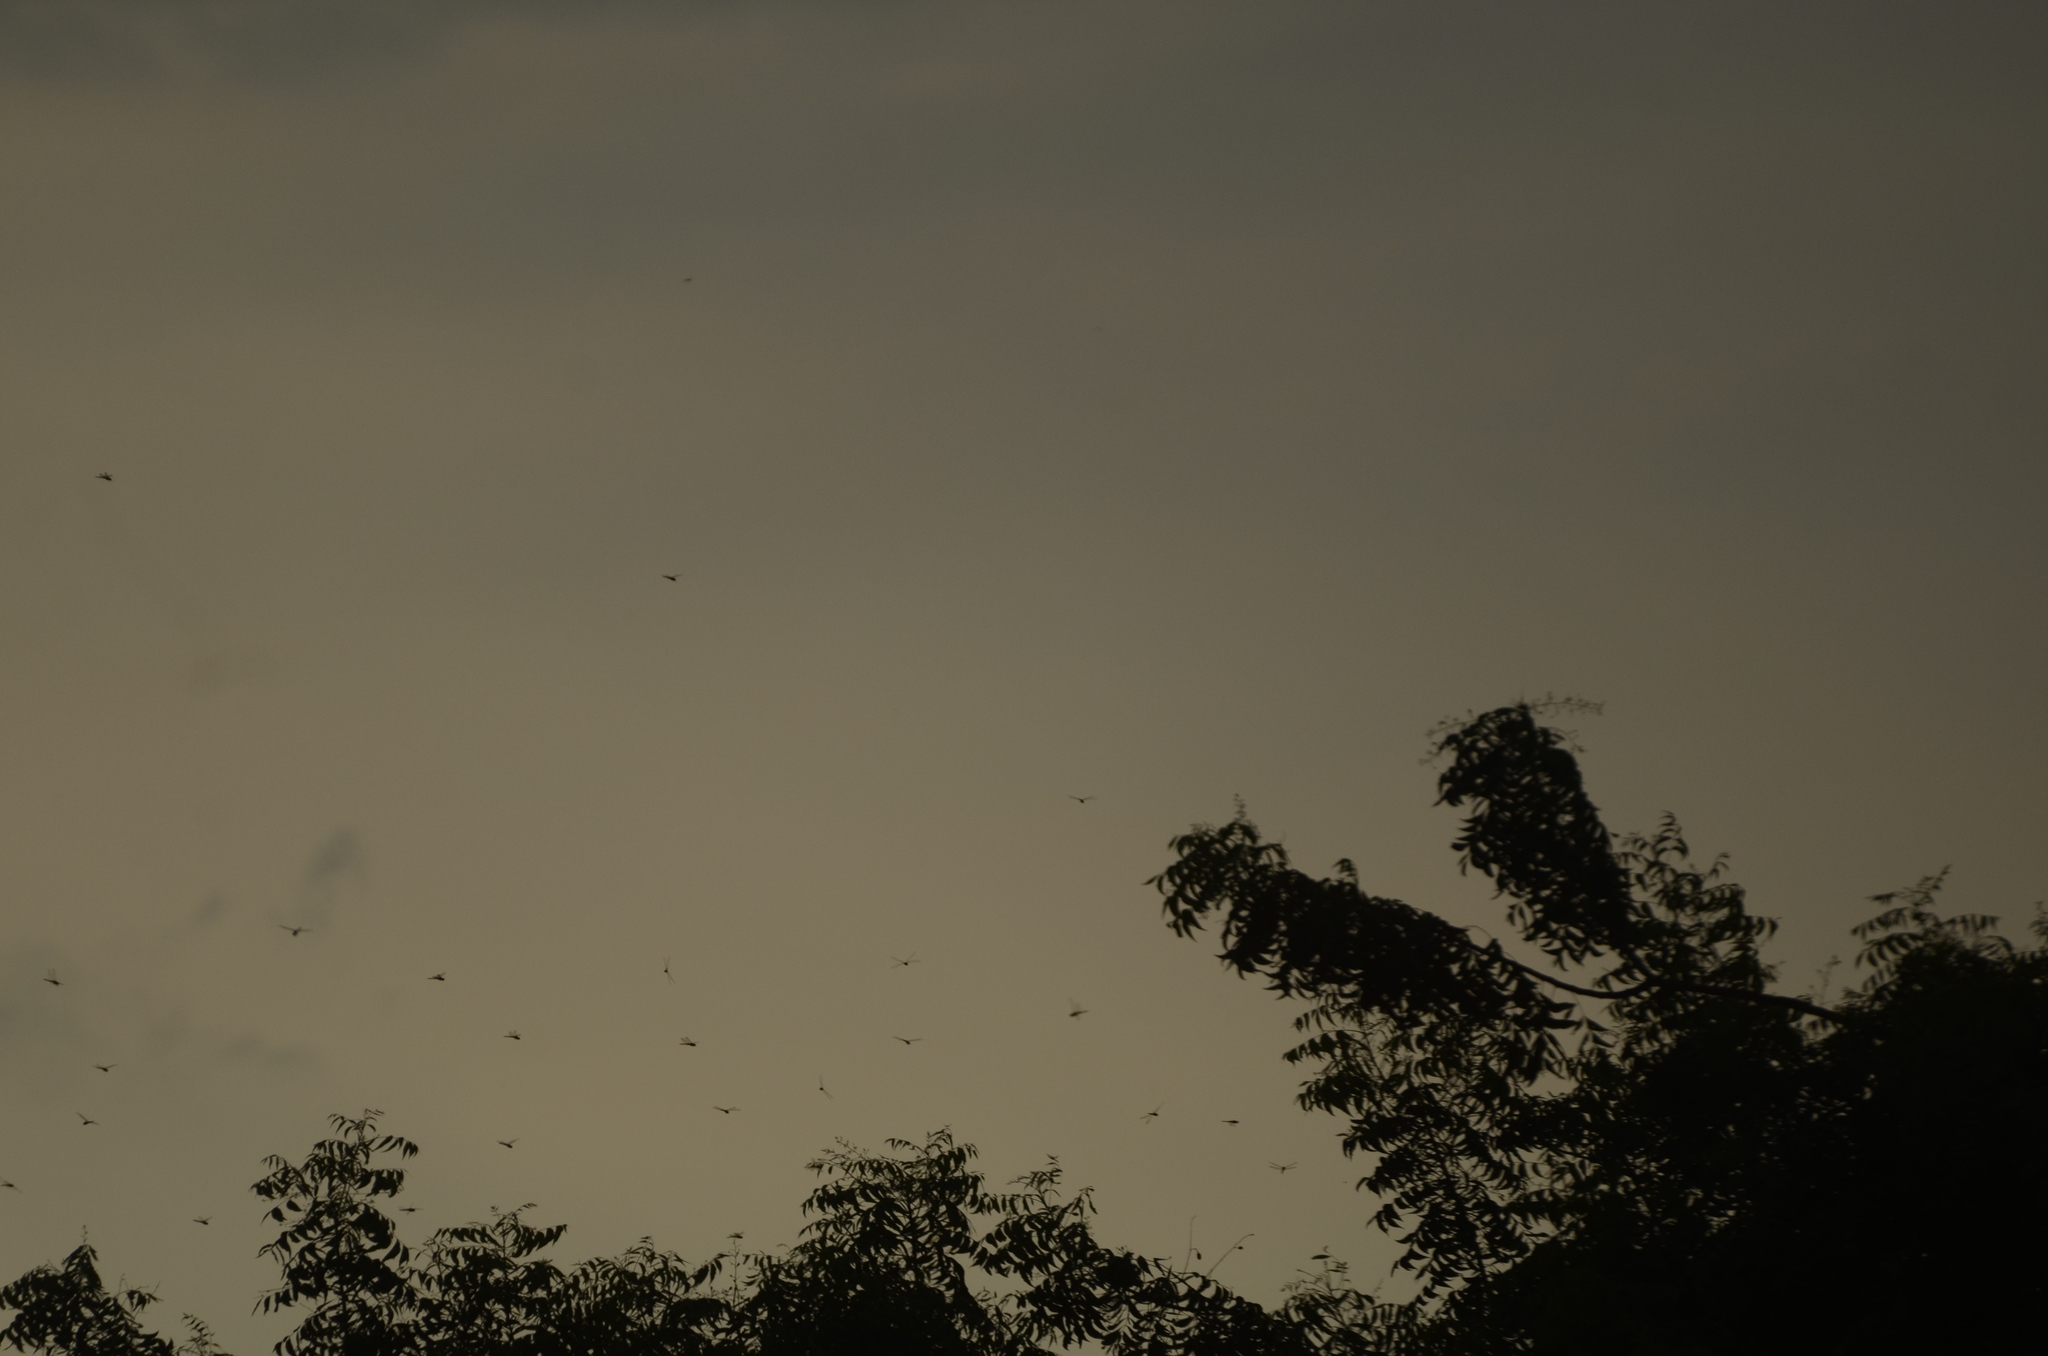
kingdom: Animalia
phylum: Arthropoda
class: Insecta
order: Odonata
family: Libellulidae
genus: Pantala
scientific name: Pantala flavescens
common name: Wandering glider
